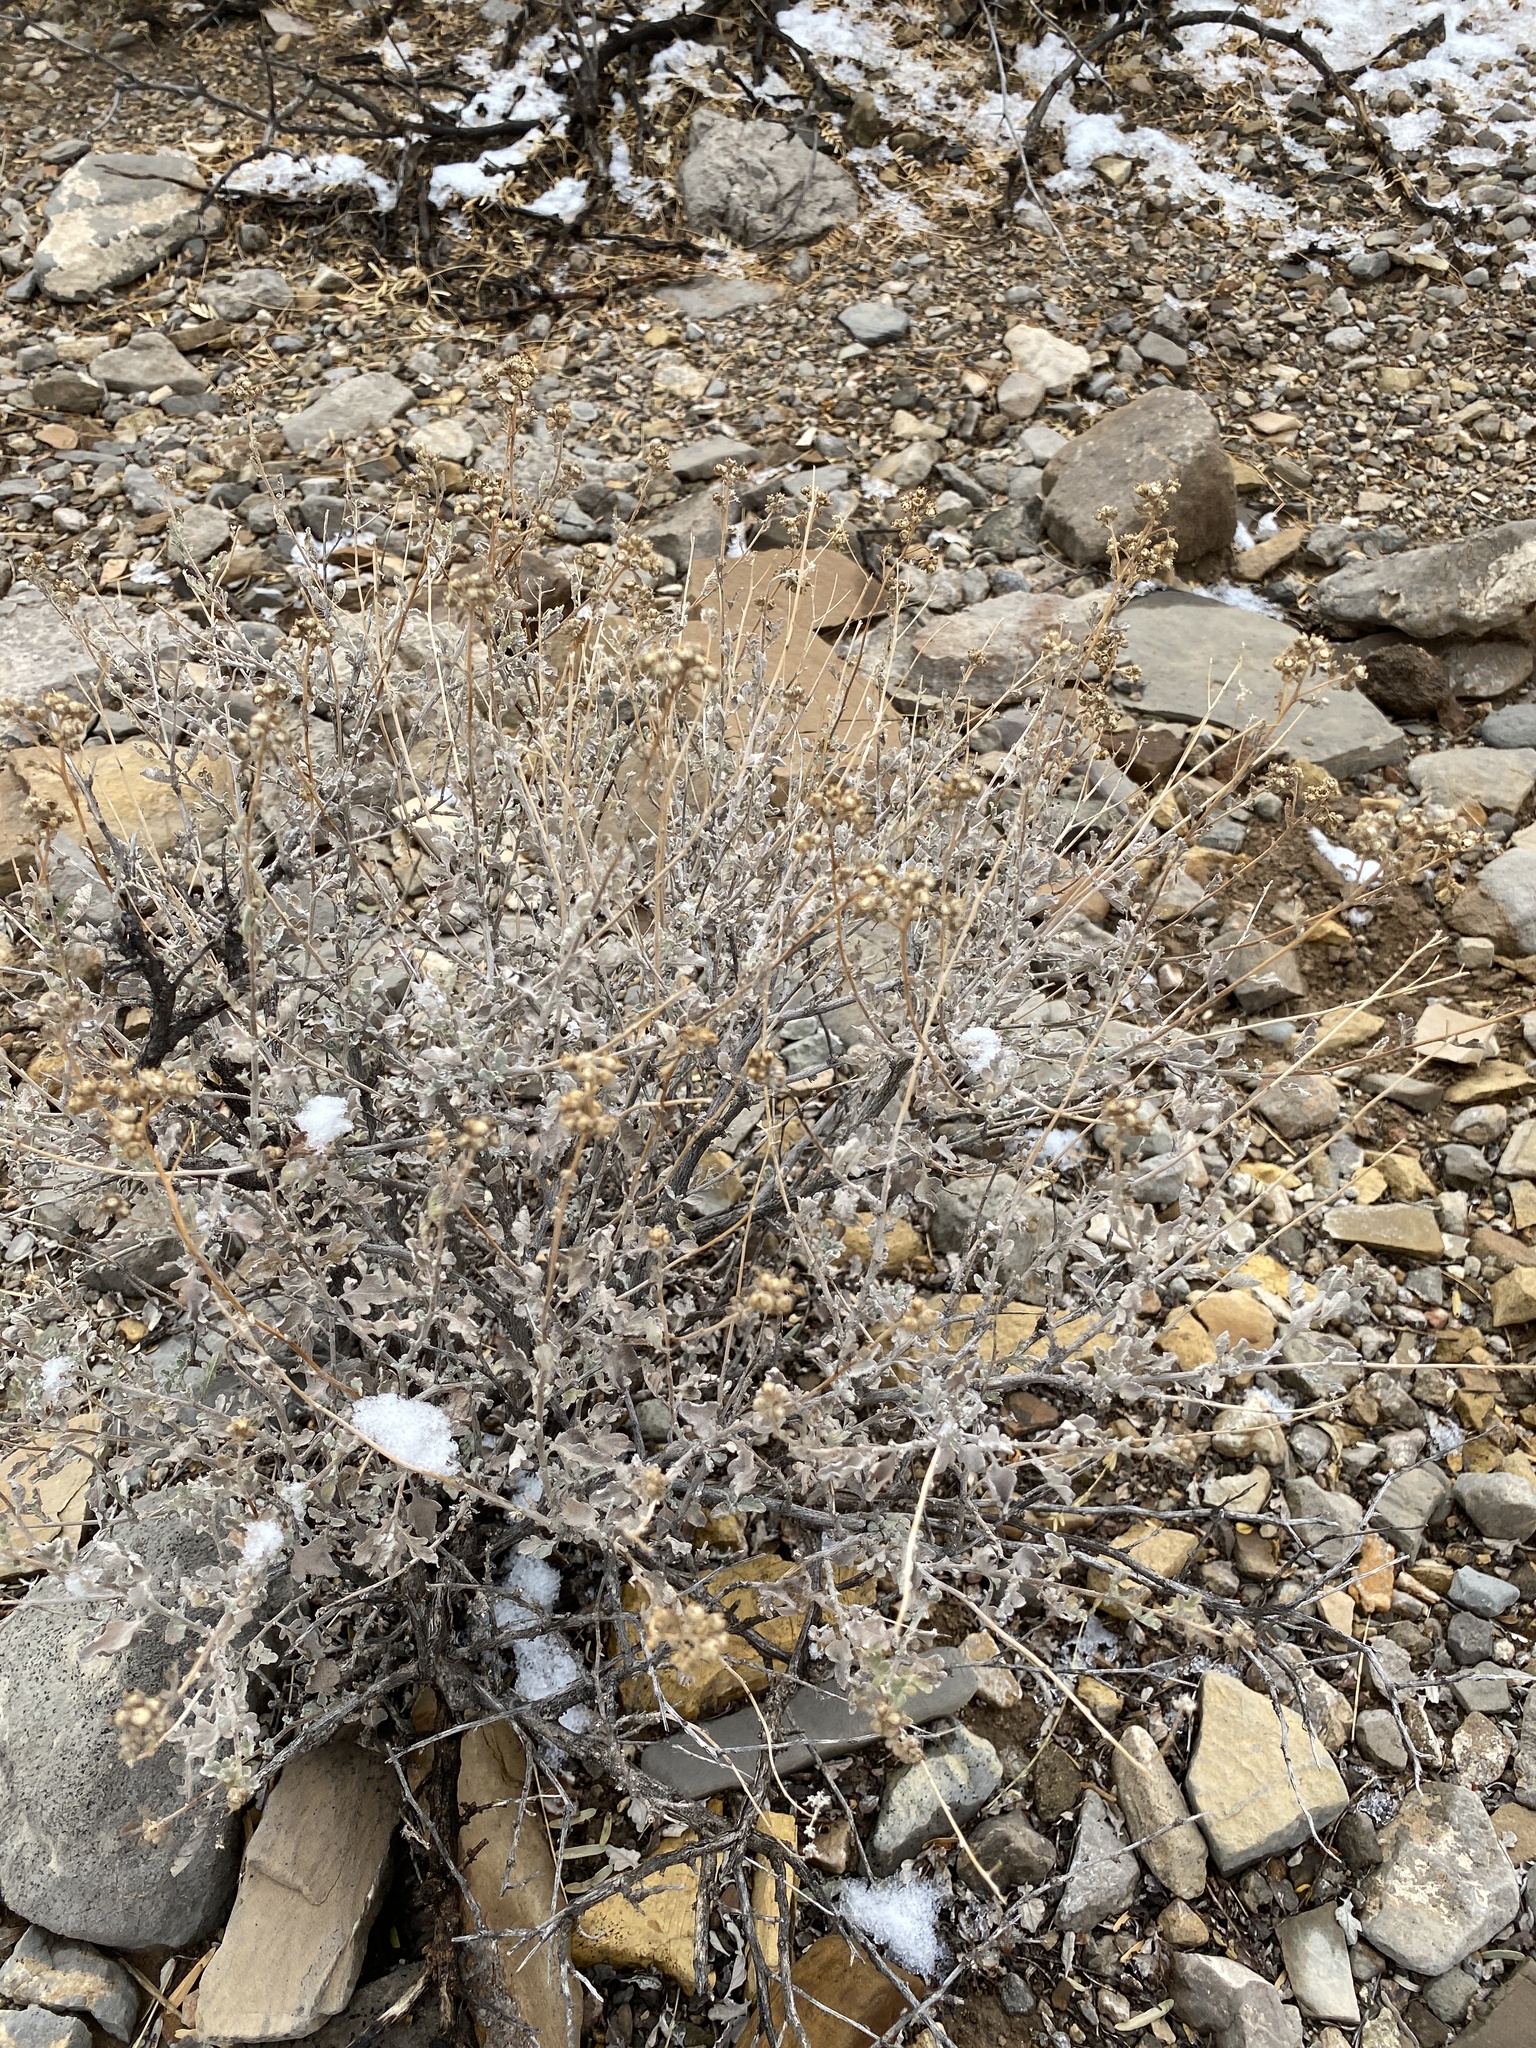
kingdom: Plantae
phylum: Tracheophyta
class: Magnoliopsida
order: Asterales
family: Asteraceae
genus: Parthenium
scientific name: Parthenium incanum
